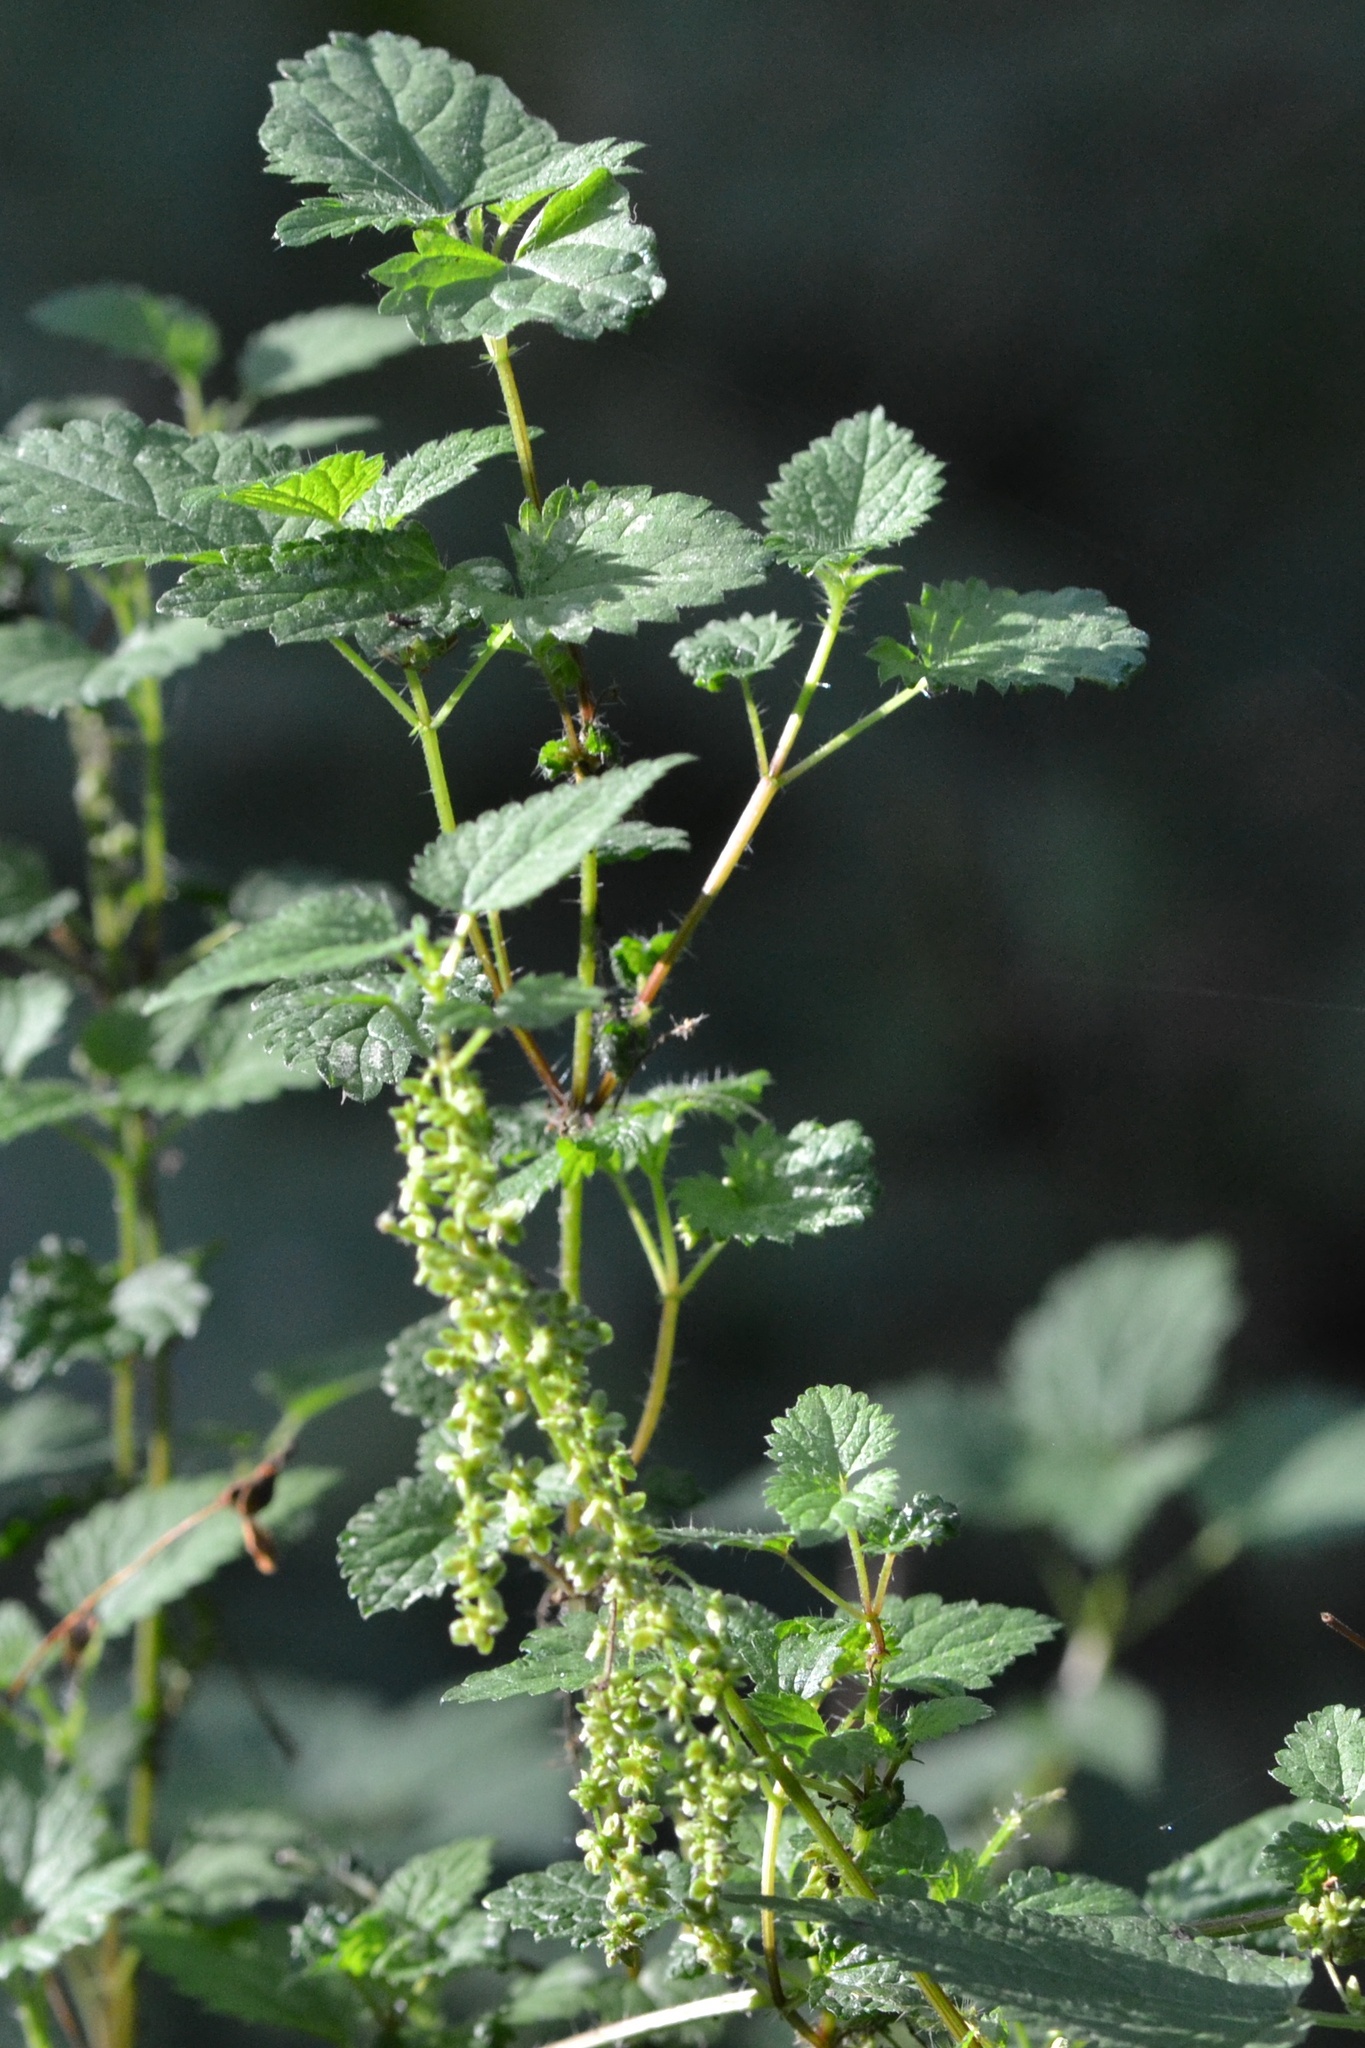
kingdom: Plantae
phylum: Tracheophyta
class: Magnoliopsida
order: Rosales
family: Urticaceae
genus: Urtica
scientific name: Urtica dioica
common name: Common nettle
